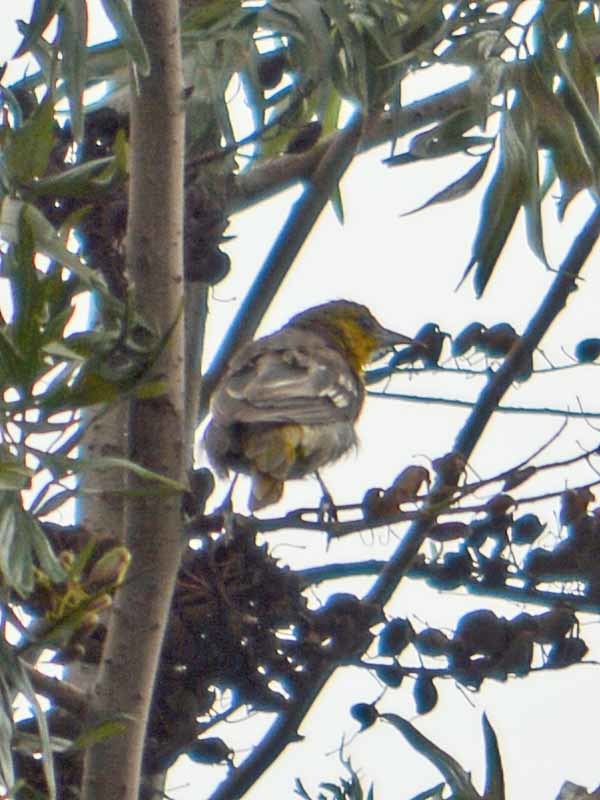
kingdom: Animalia
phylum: Chordata
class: Aves
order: Passeriformes
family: Icteridae
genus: Icterus
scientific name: Icterus abeillei
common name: Black-backed oriole
